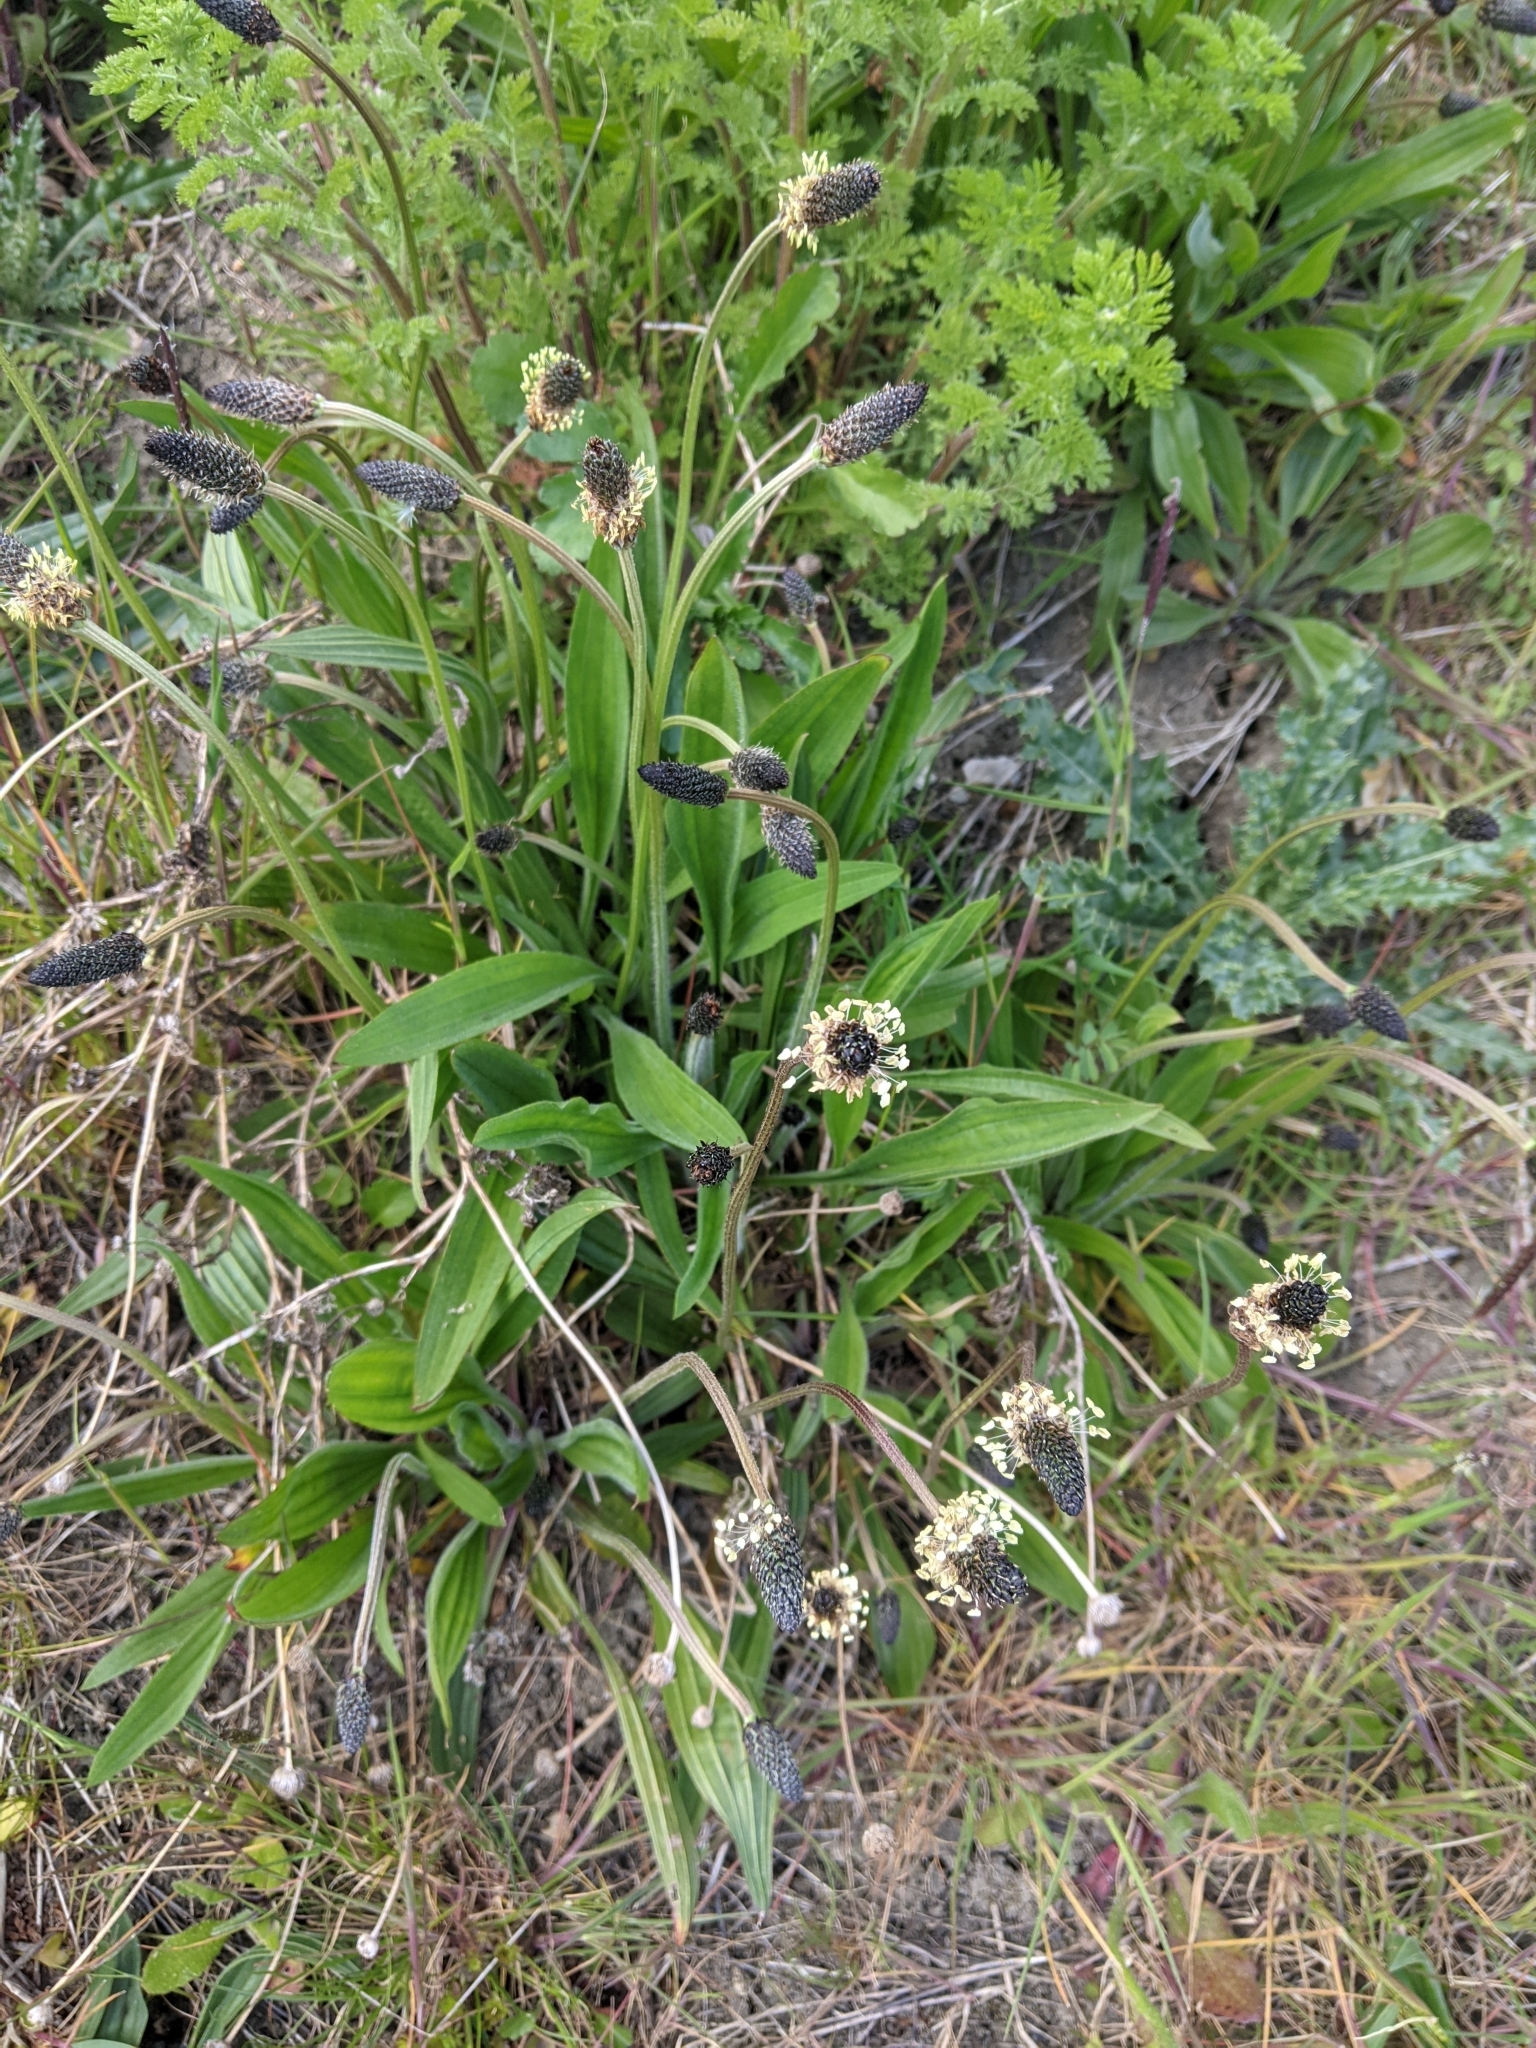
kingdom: Plantae
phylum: Tracheophyta
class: Magnoliopsida
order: Lamiales
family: Plantaginaceae
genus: Plantago
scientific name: Plantago lanceolata
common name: Ribwort plantain
